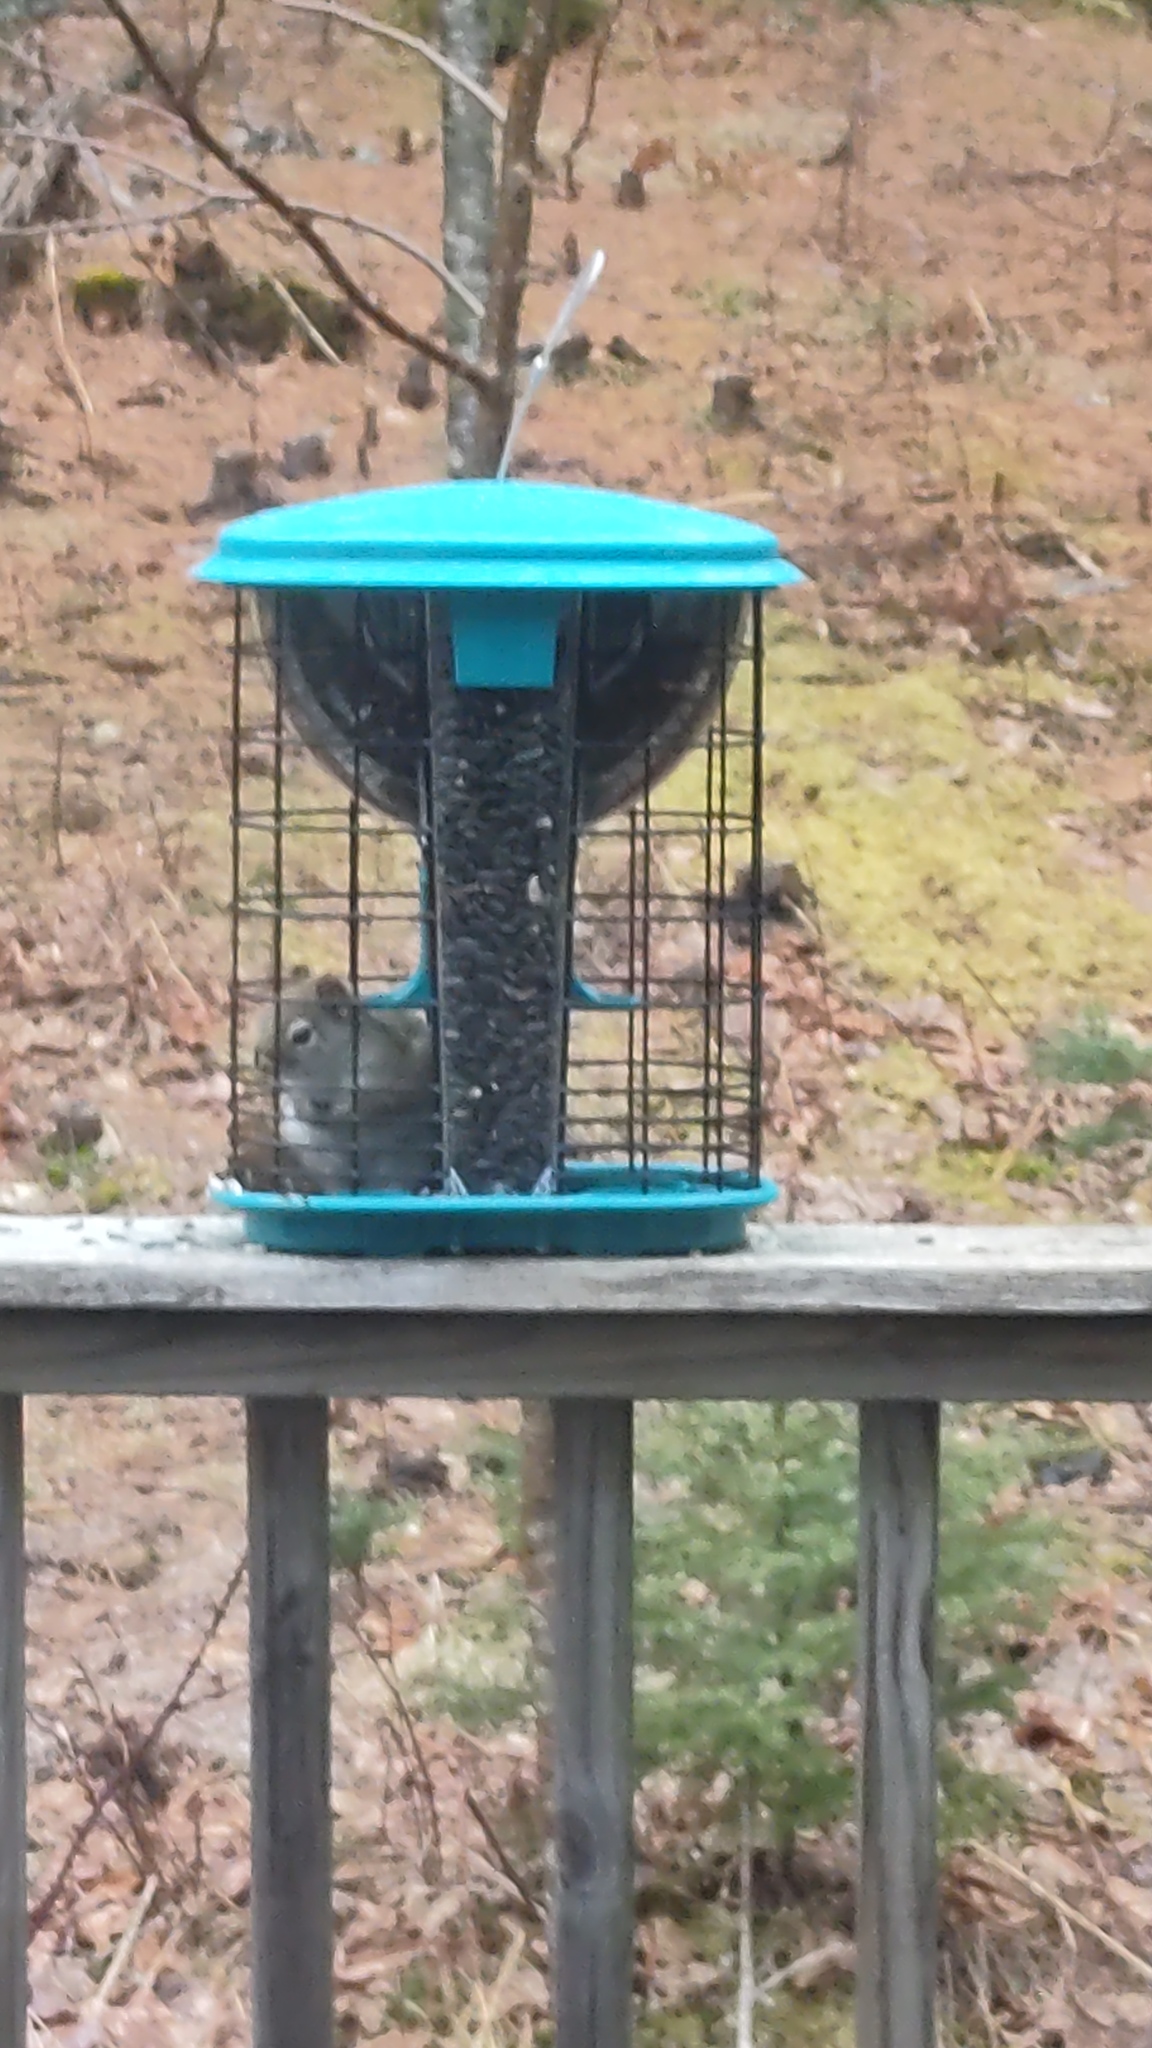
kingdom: Animalia
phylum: Chordata
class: Mammalia
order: Rodentia
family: Sciuridae
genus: Tamiasciurus
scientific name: Tamiasciurus hudsonicus
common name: Red squirrel
